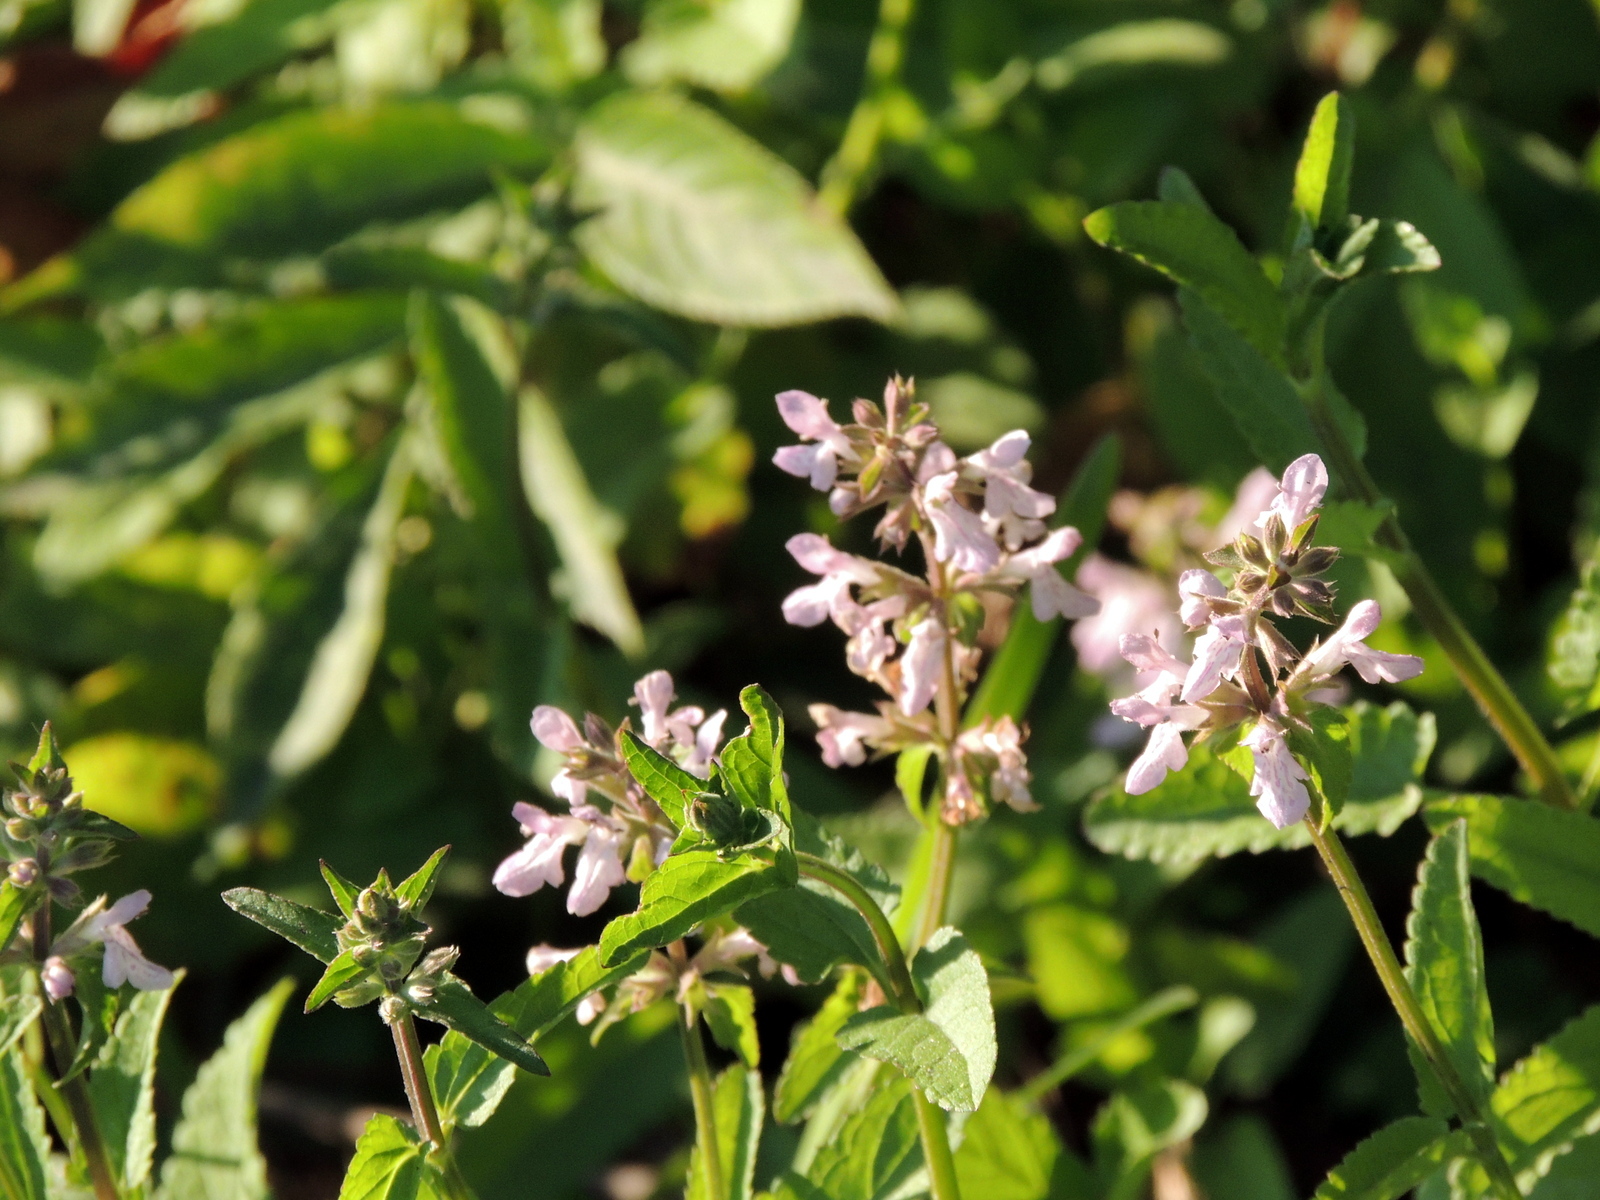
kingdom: Plantae
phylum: Tracheophyta
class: Magnoliopsida
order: Lamiales
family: Lamiaceae
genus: Stachys
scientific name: Stachys floridana
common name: Florida betony
